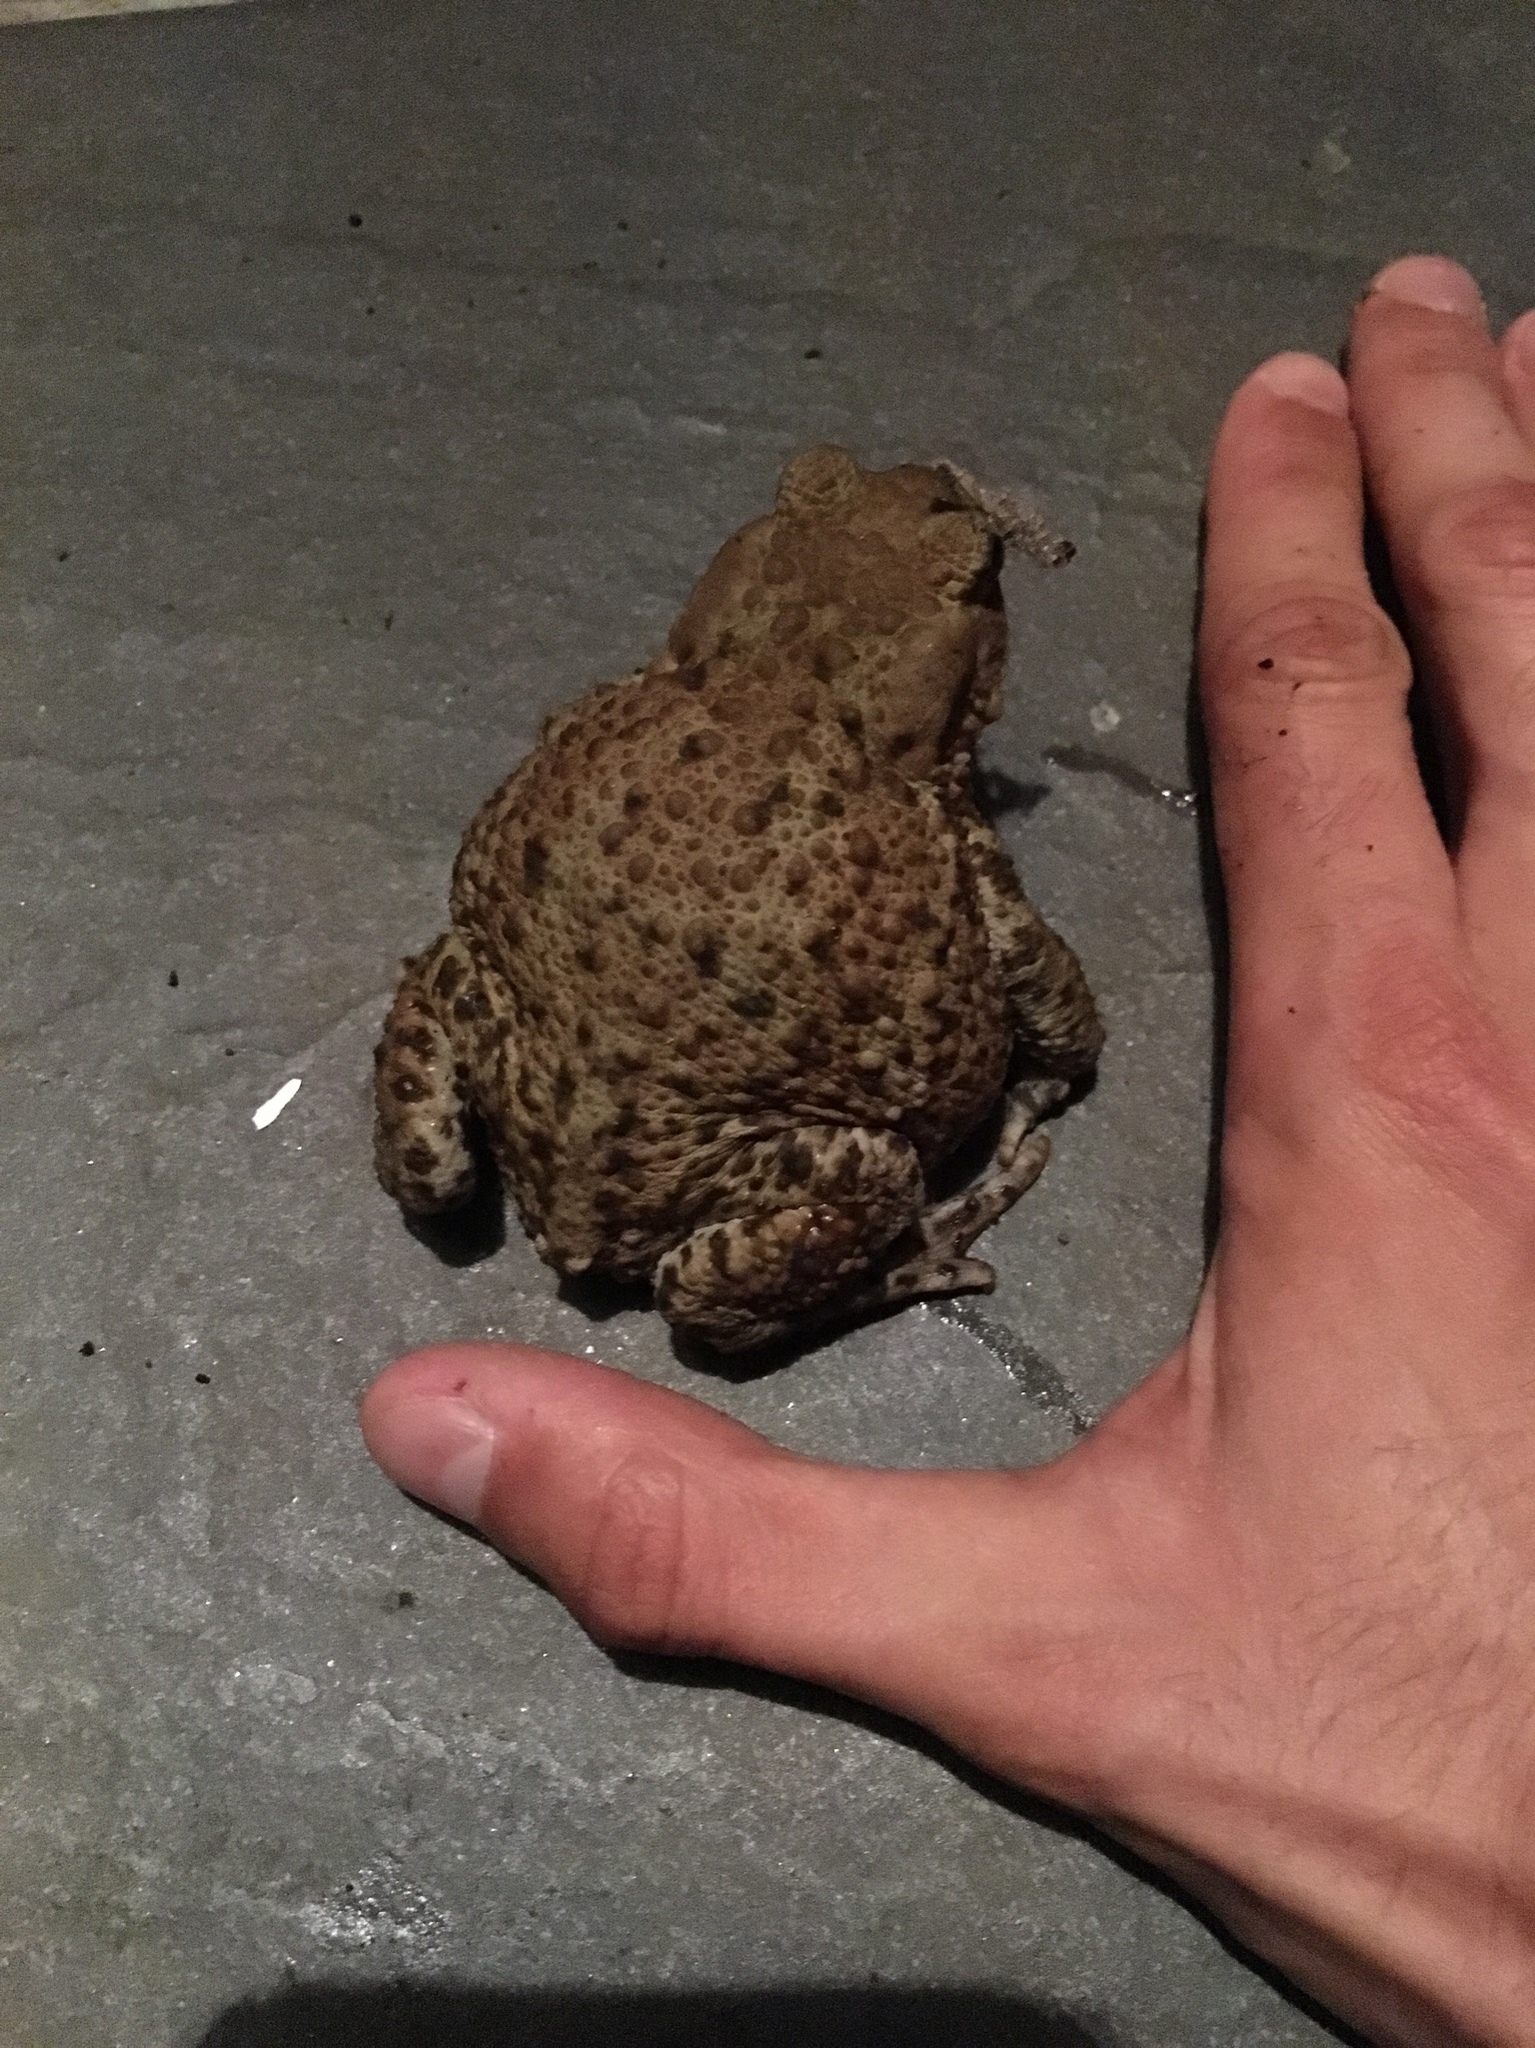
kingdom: Animalia
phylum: Chordata
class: Amphibia
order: Anura
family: Bufonidae
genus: Bufo
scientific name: Bufo bufo
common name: Common toad
